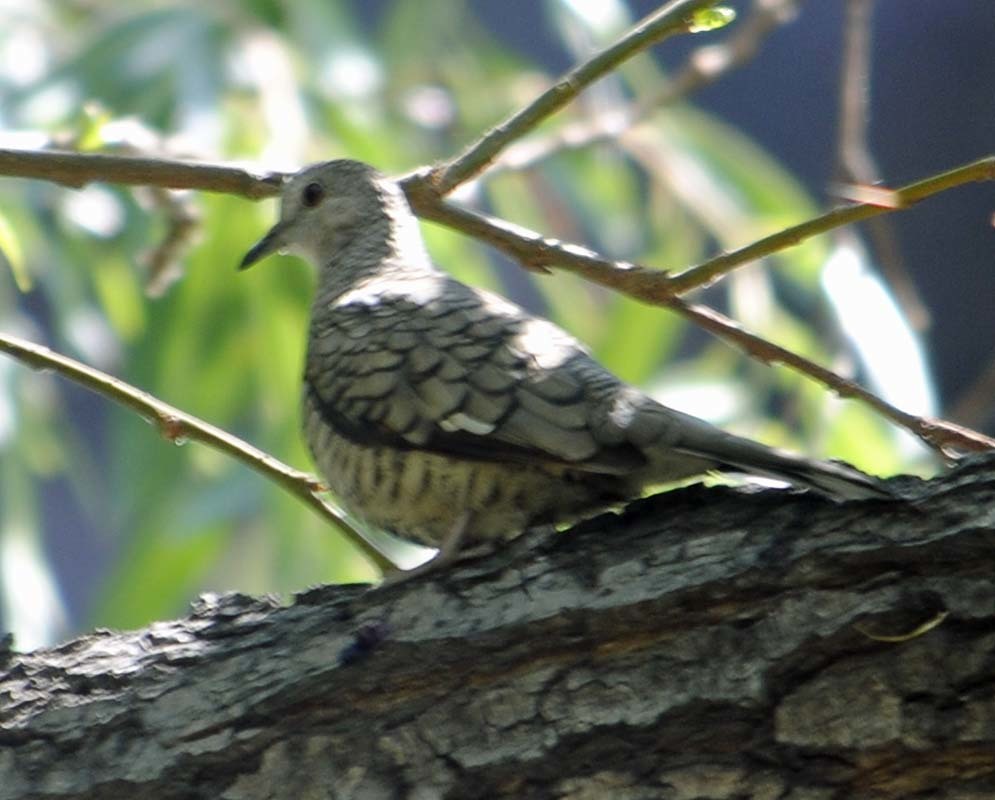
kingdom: Animalia
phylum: Chordata
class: Aves
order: Columbiformes
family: Columbidae
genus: Columbina
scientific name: Columbina inca
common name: Inca dove
